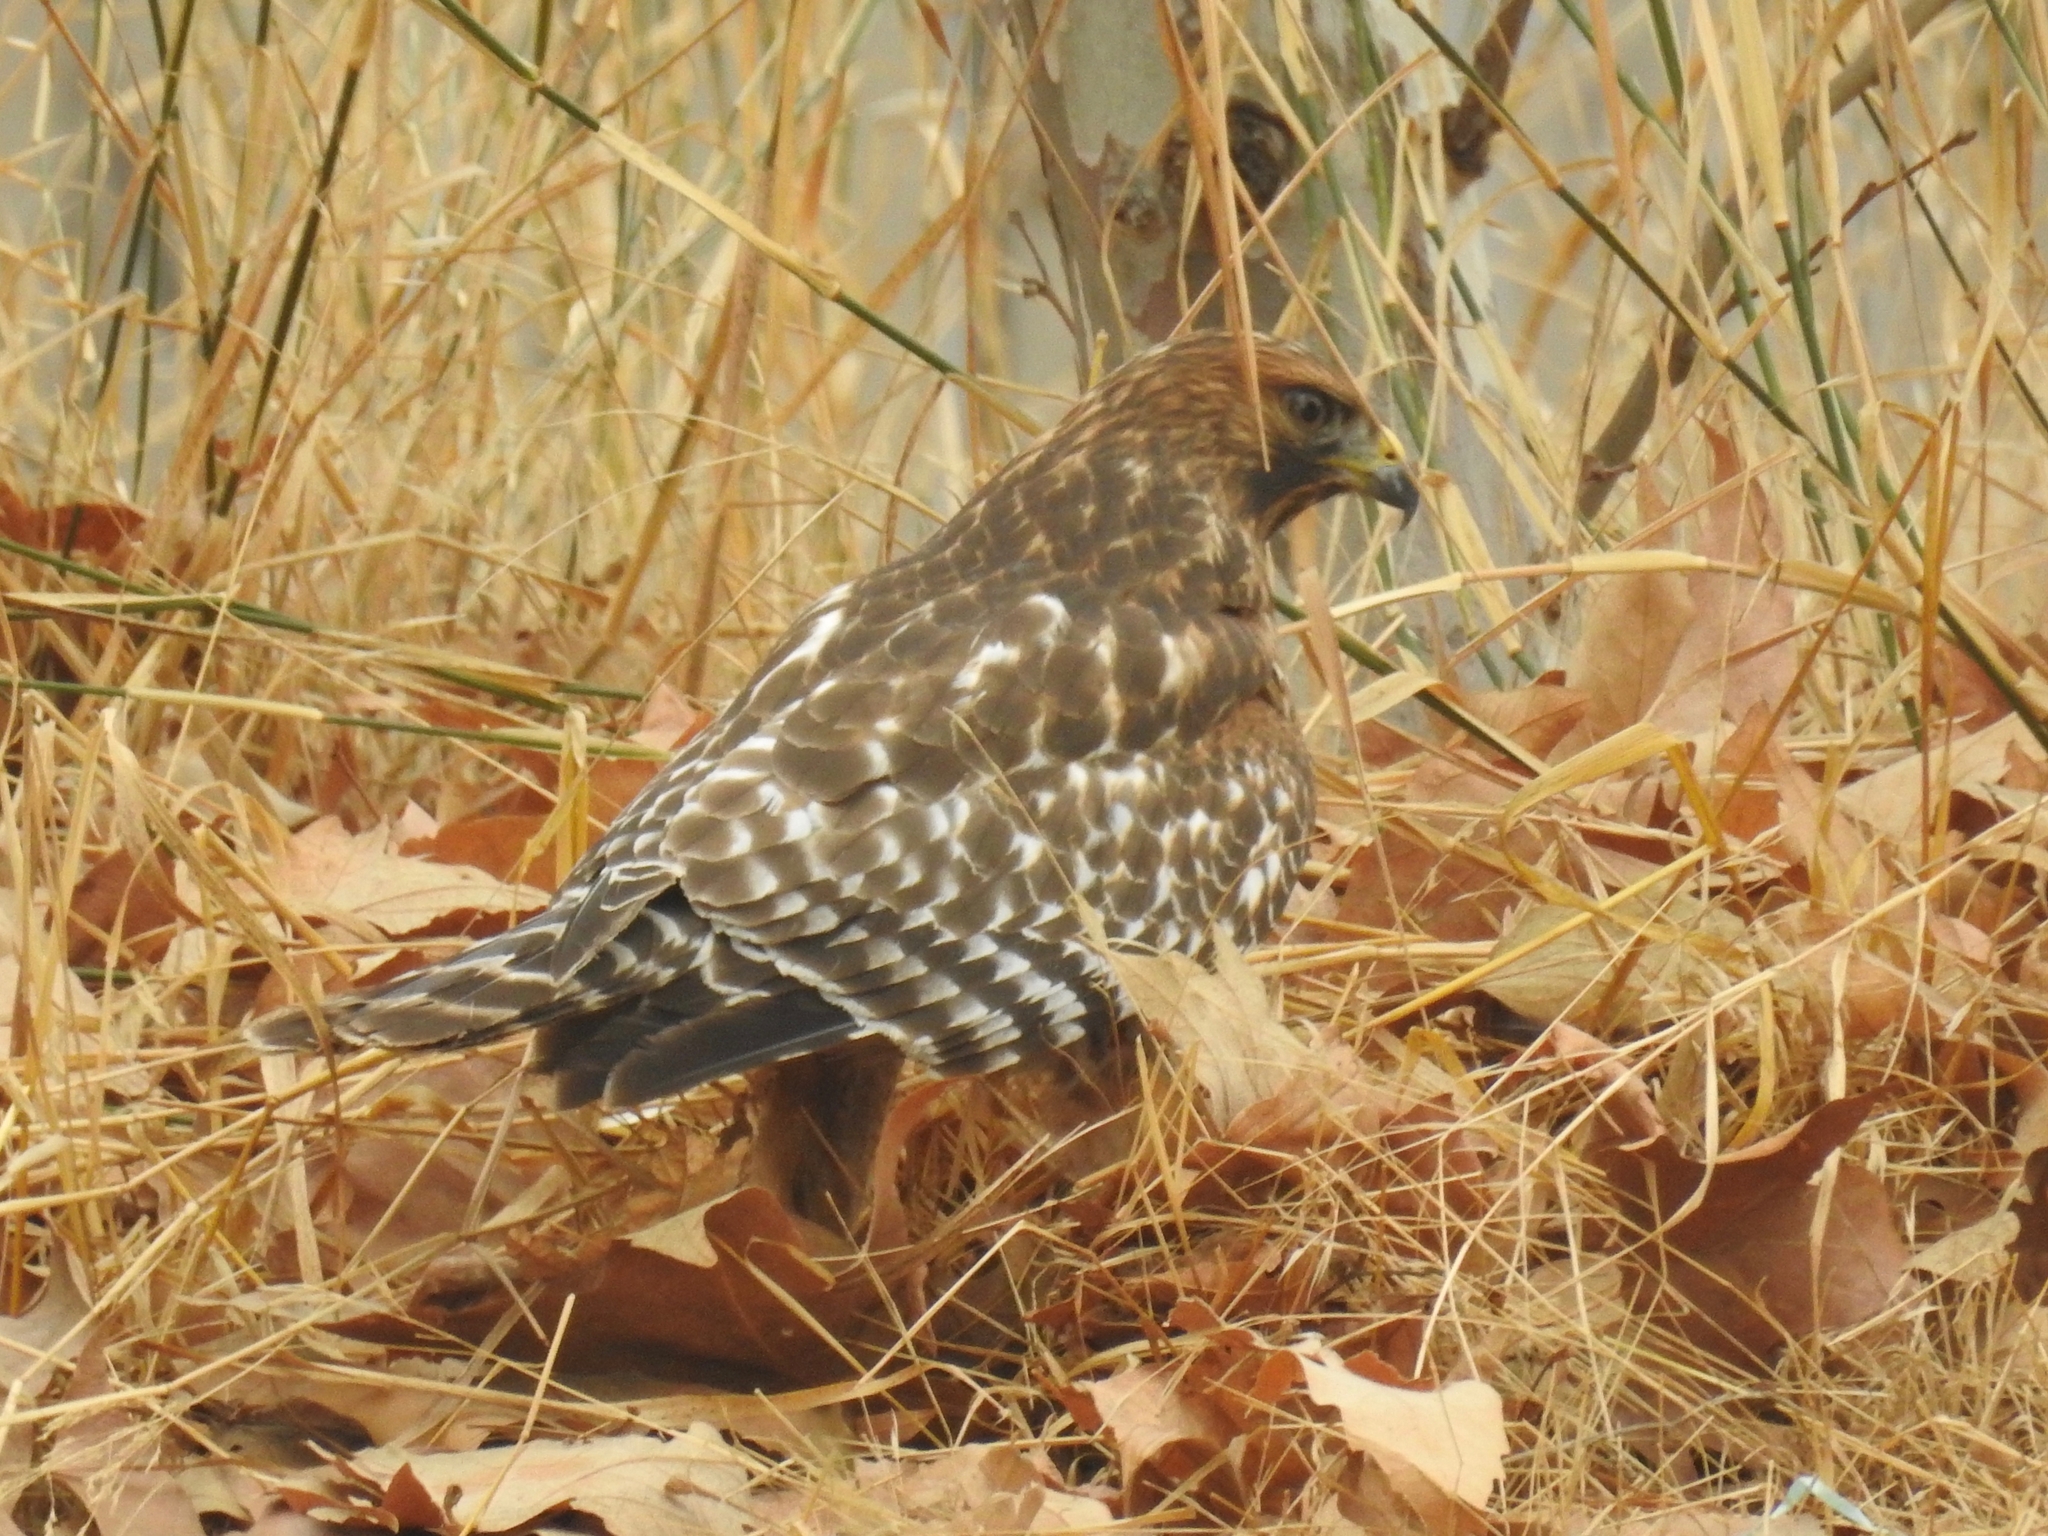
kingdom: Animalia
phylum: Chordata
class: Aves
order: Accipitriformes
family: Accipitridae
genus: Buteo
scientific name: Buteo lineatus
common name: Red-shouldered hawk
